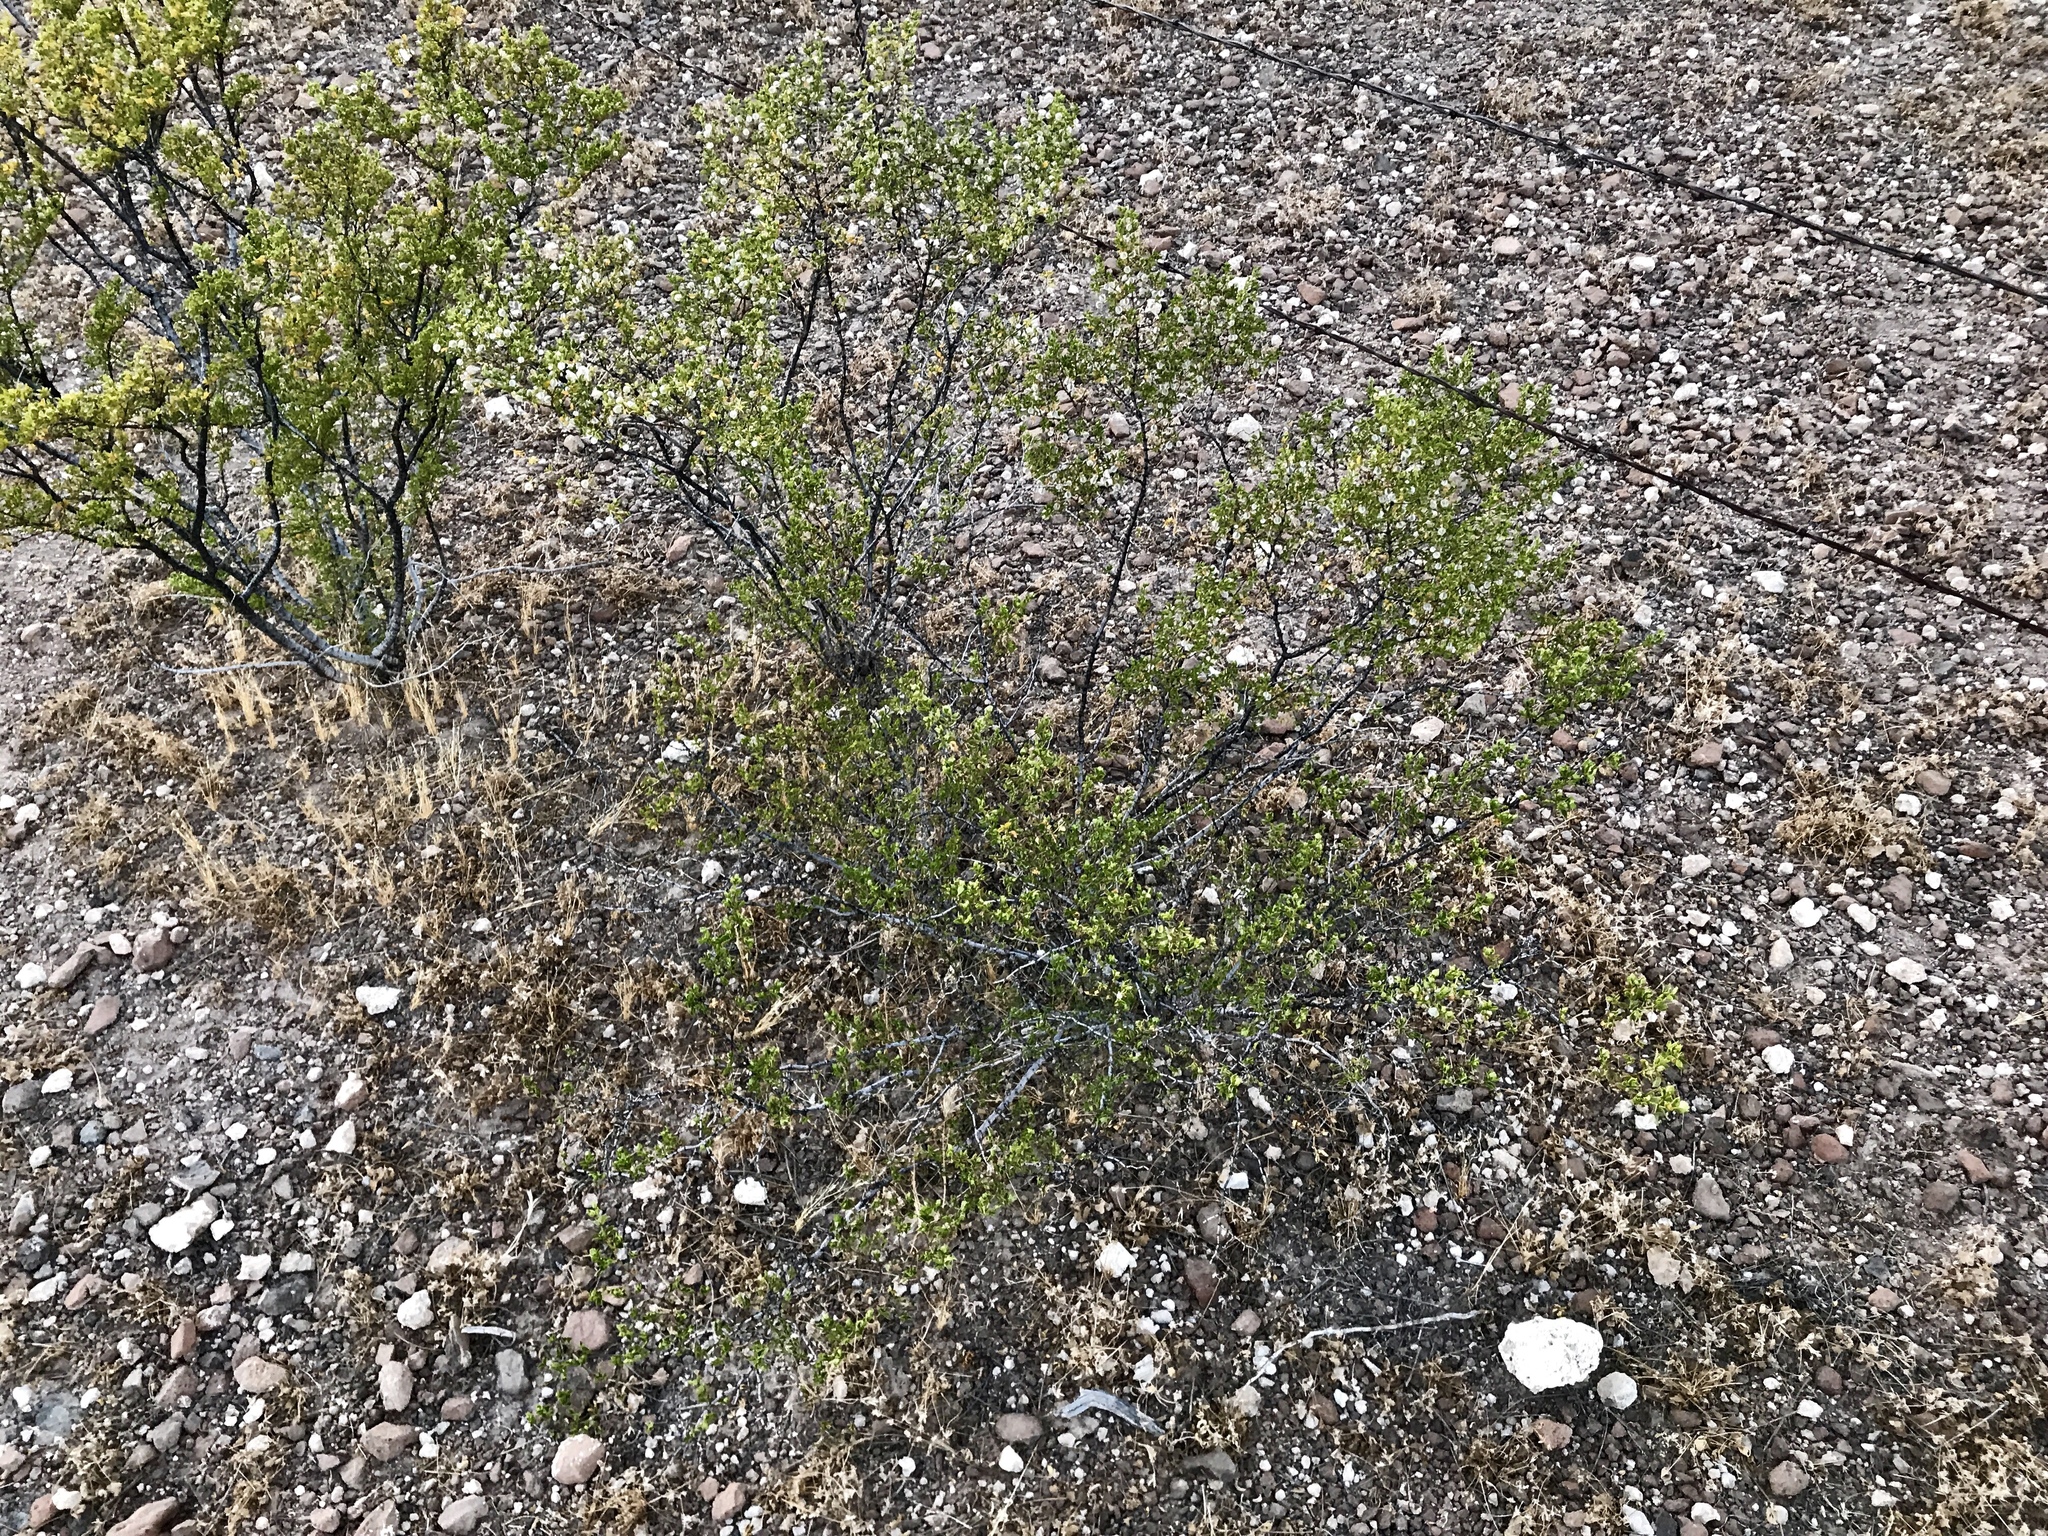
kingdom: Plantae
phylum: Tracheophyta
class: Magnoliopsida
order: Zygophyllales
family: Zygophyllaceae
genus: Larrea
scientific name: Larrea tridentata
